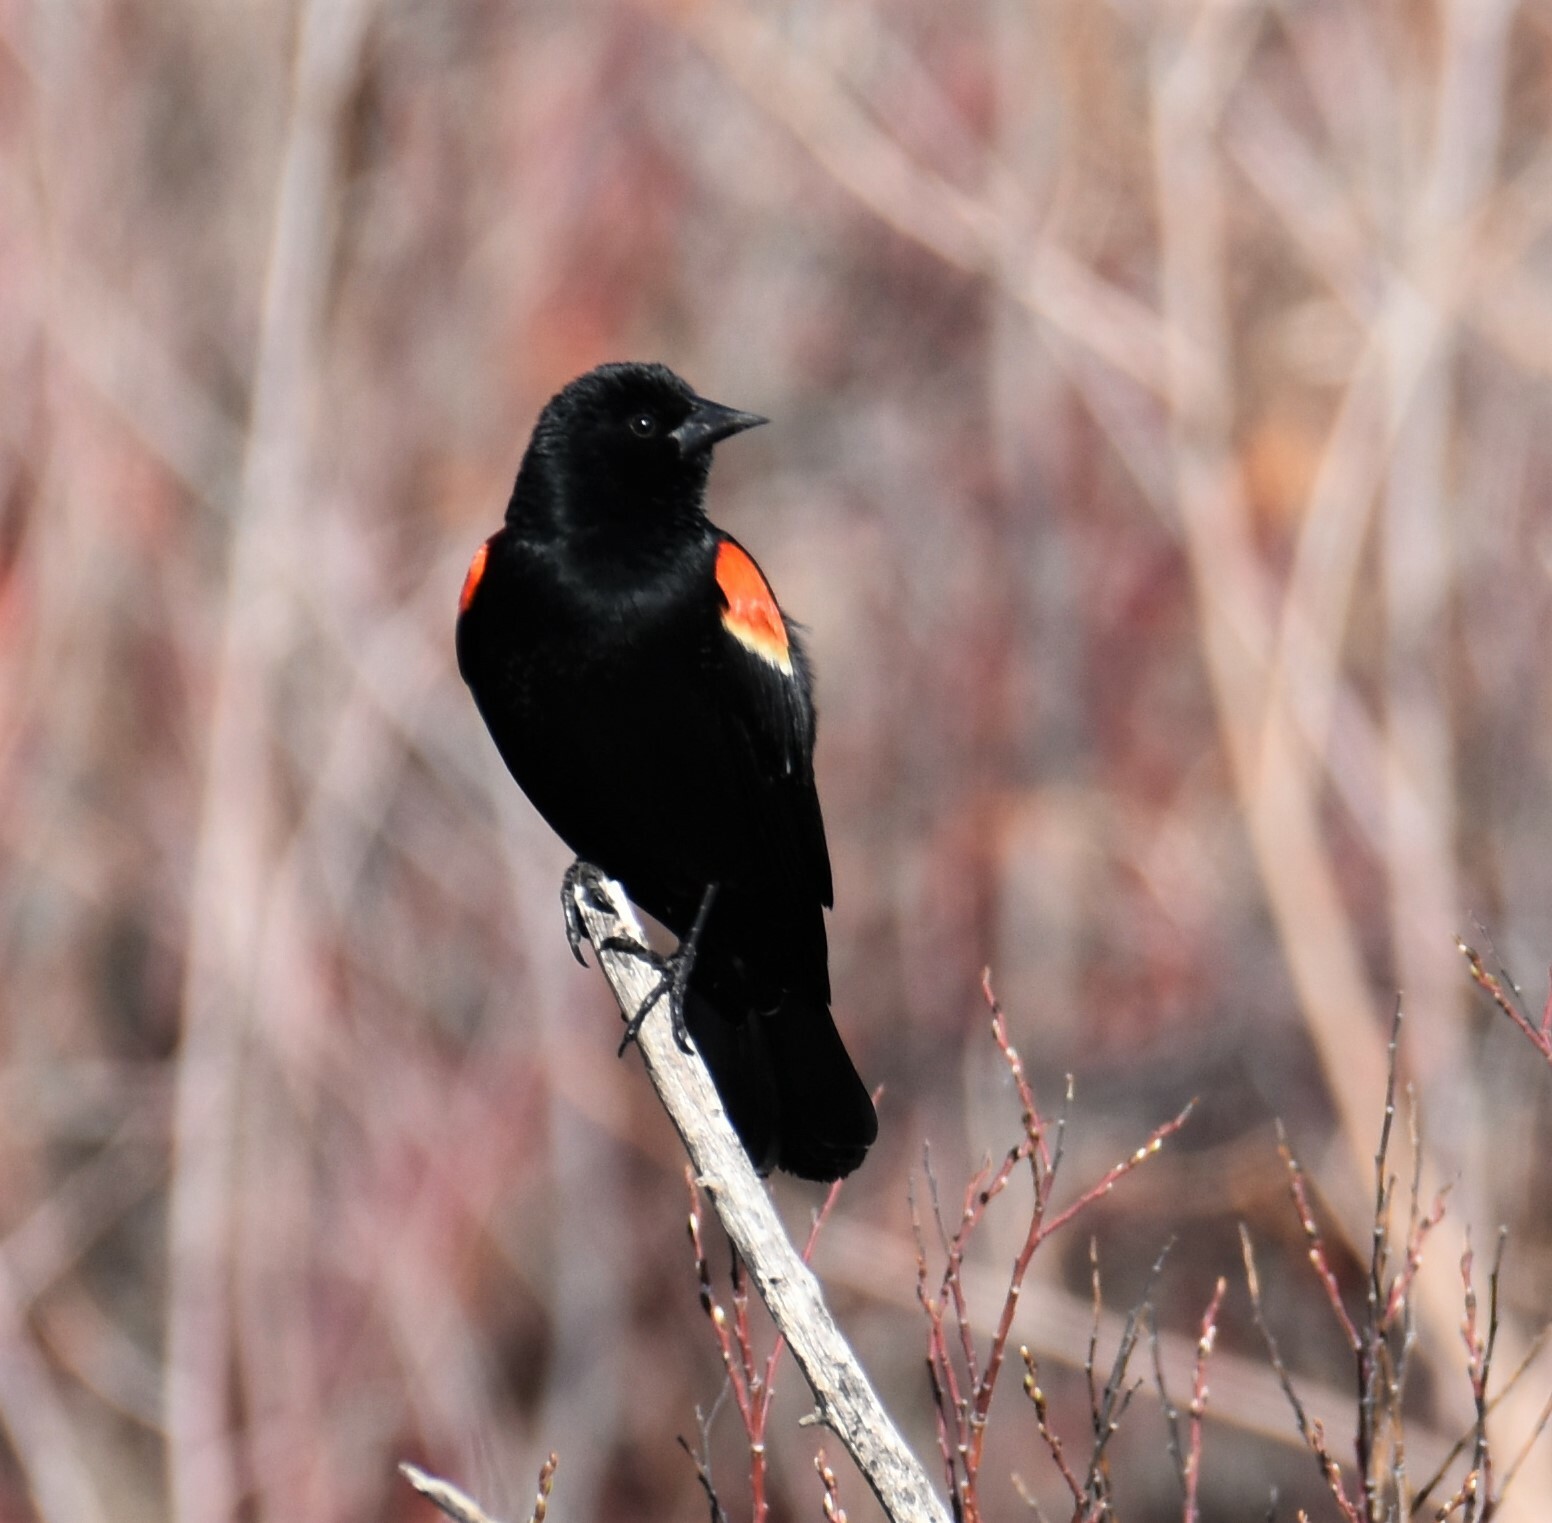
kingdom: Animalia
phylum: Chordata
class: Aves
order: Passeriformes
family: Icteridae
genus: Agelaius
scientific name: Agelaius phoeniceus
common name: Red-winged blackbird
